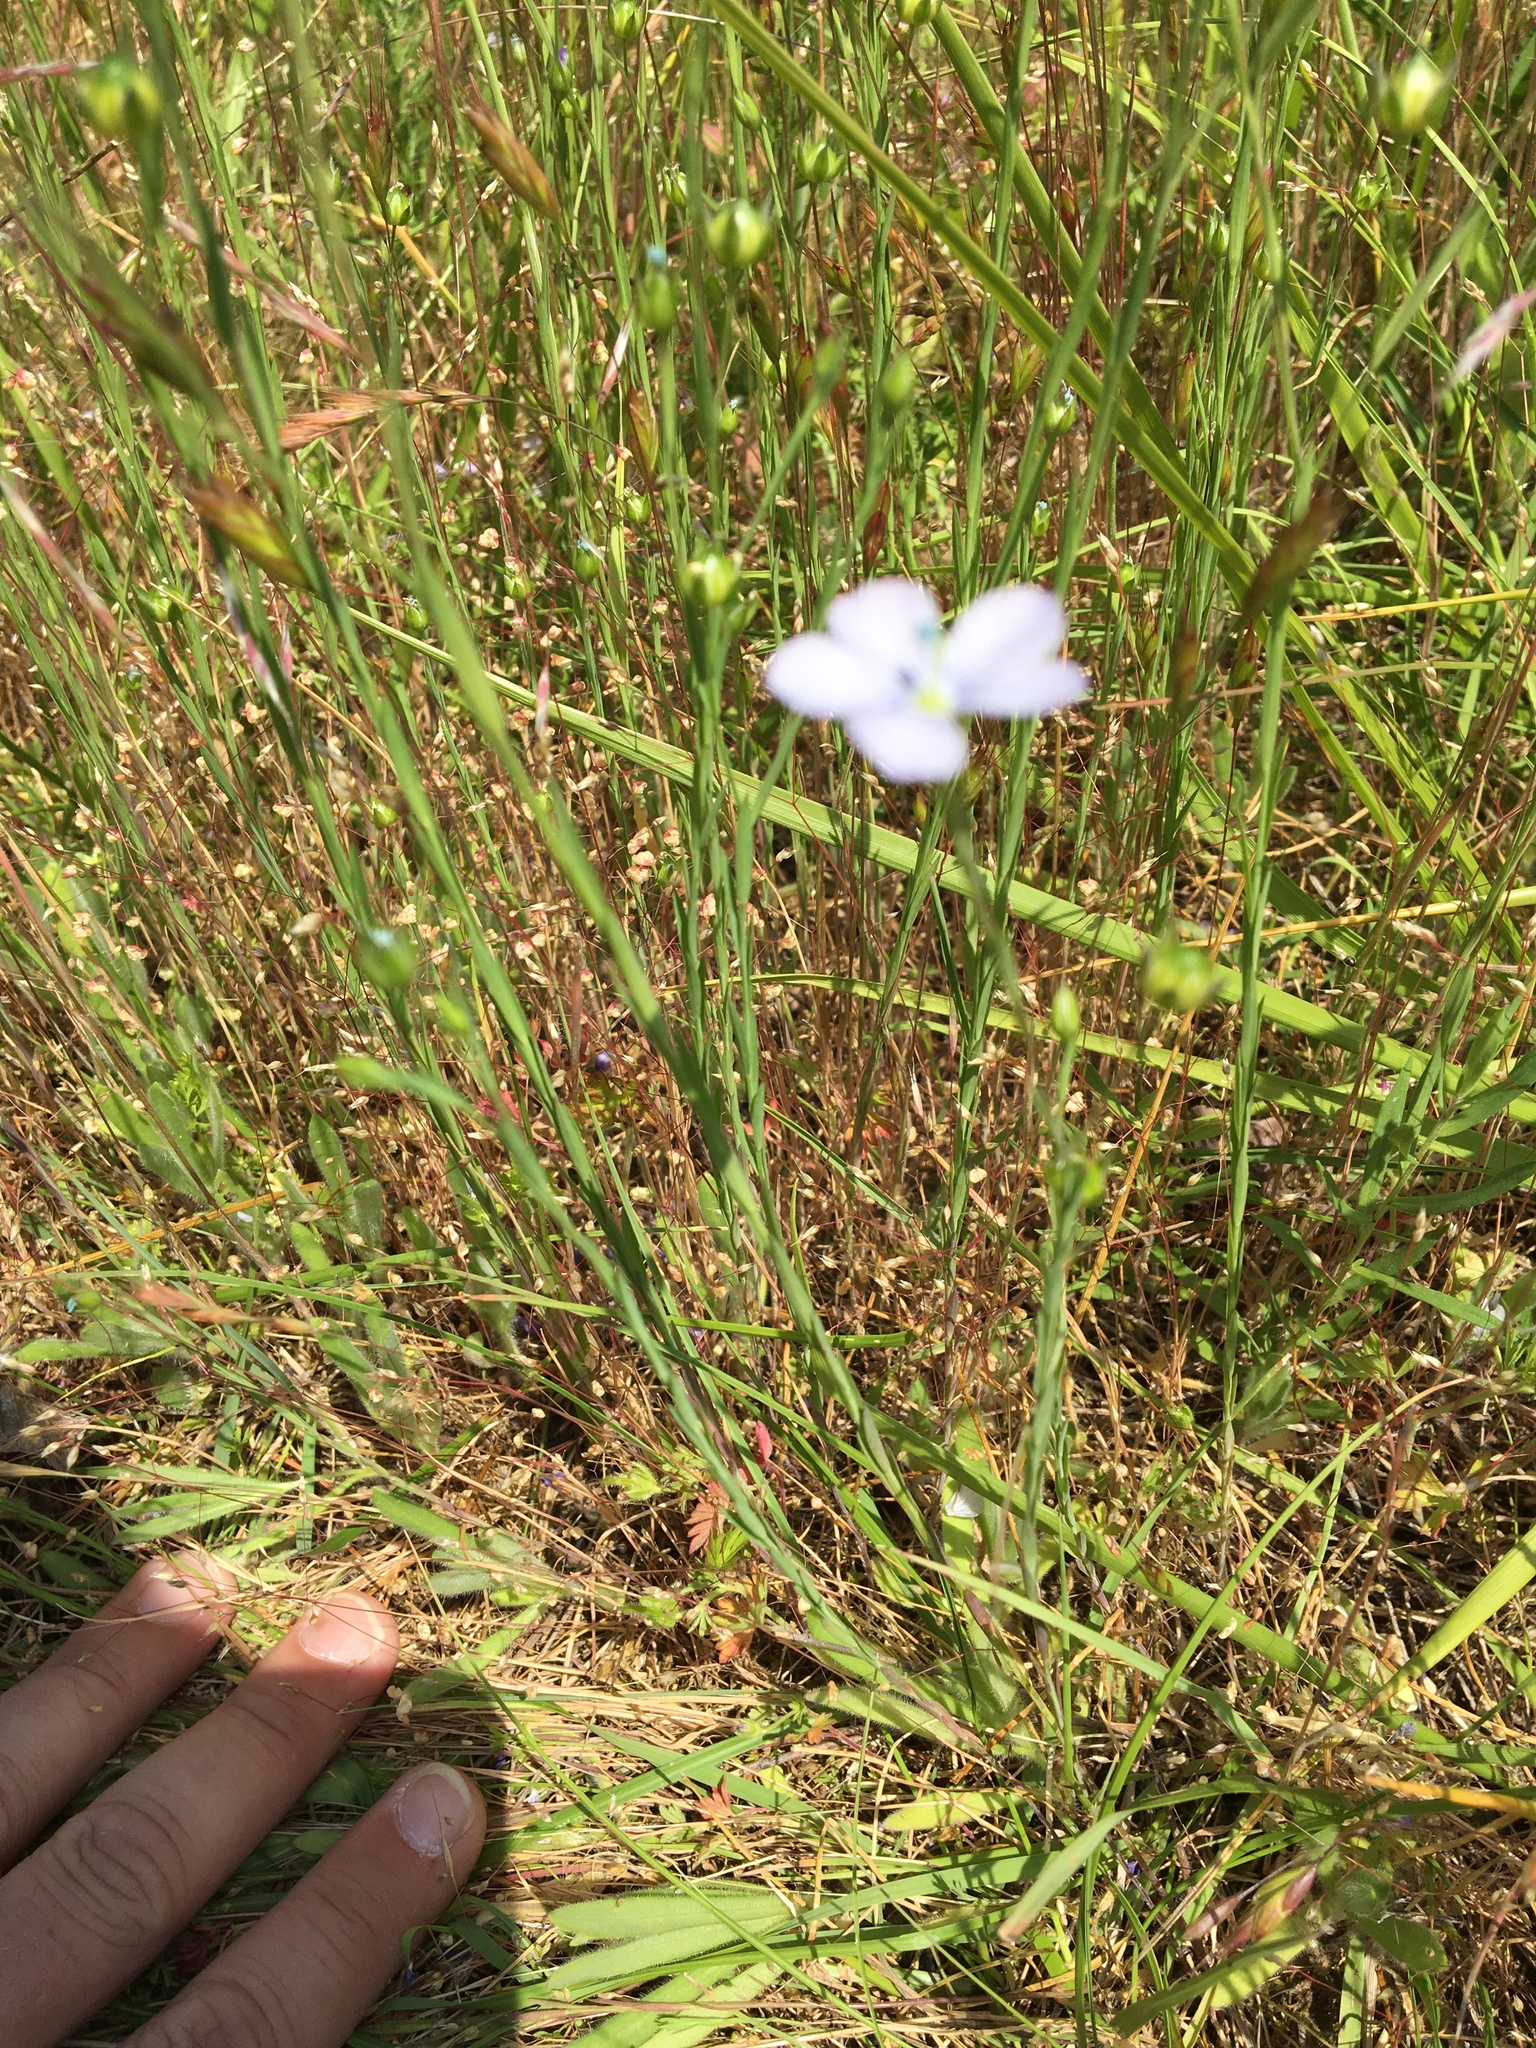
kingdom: Plantae
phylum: Tracheophyta
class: Magnoliopsida
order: Malpighiales
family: Linaceae
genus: Linum
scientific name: Linum bienne
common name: Pale flax
